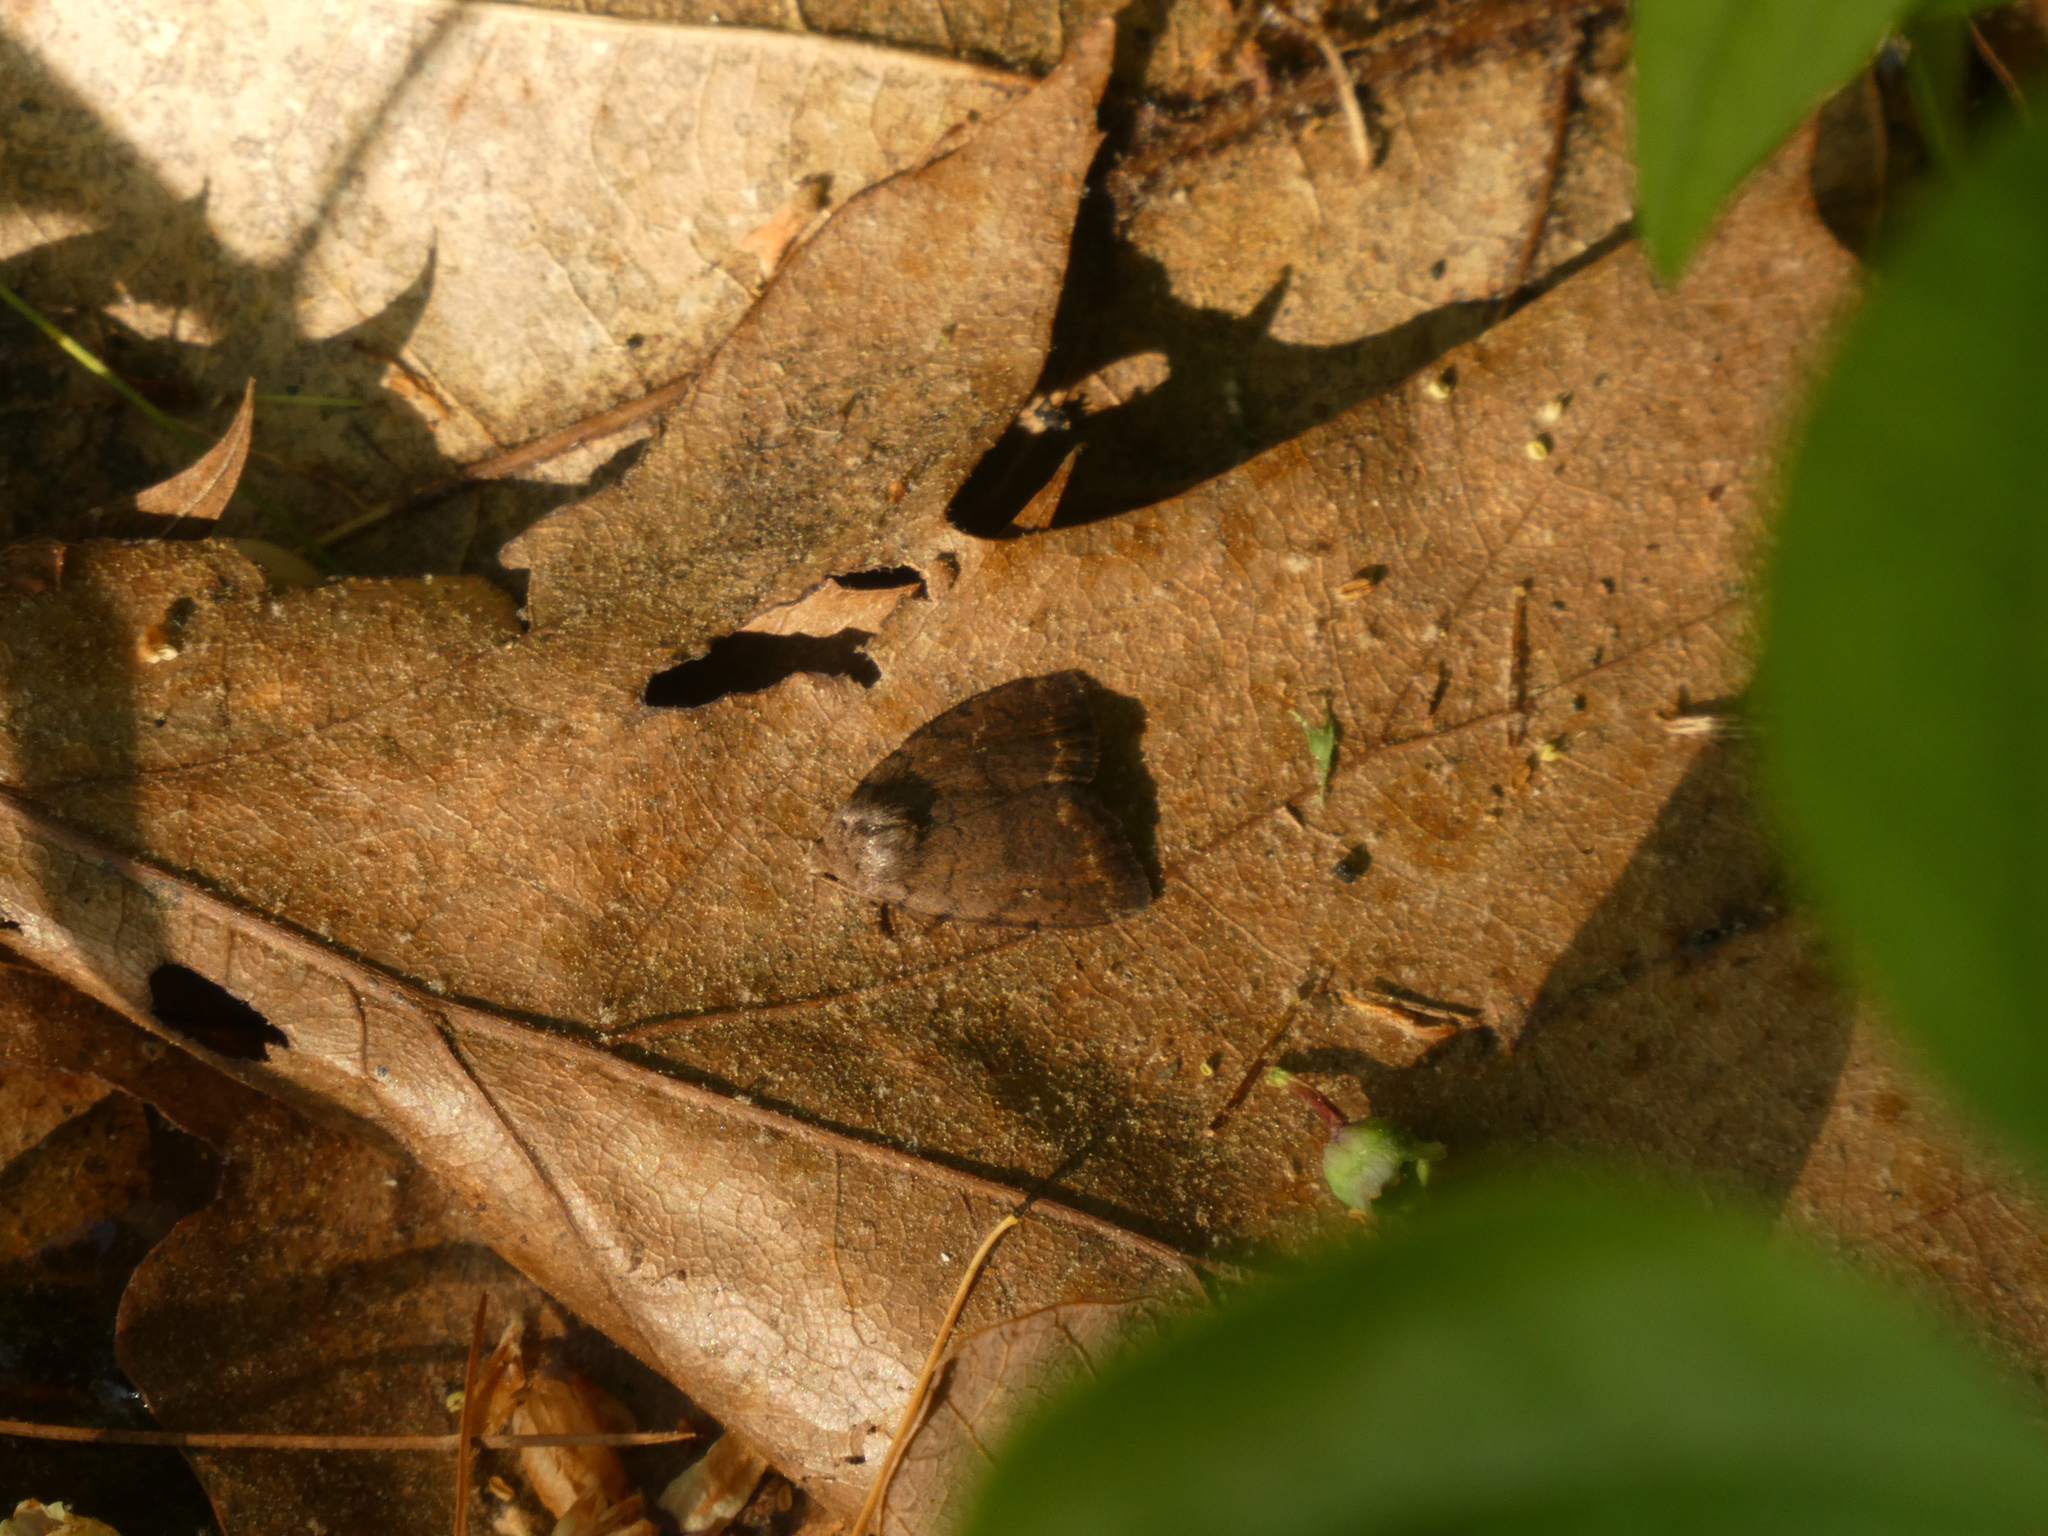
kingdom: Animalia
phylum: Arthropoda
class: Insecta
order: Lepidoptera
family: Noctuidae
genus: Athetis
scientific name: Athetis tarda
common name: Slowpoke moth
